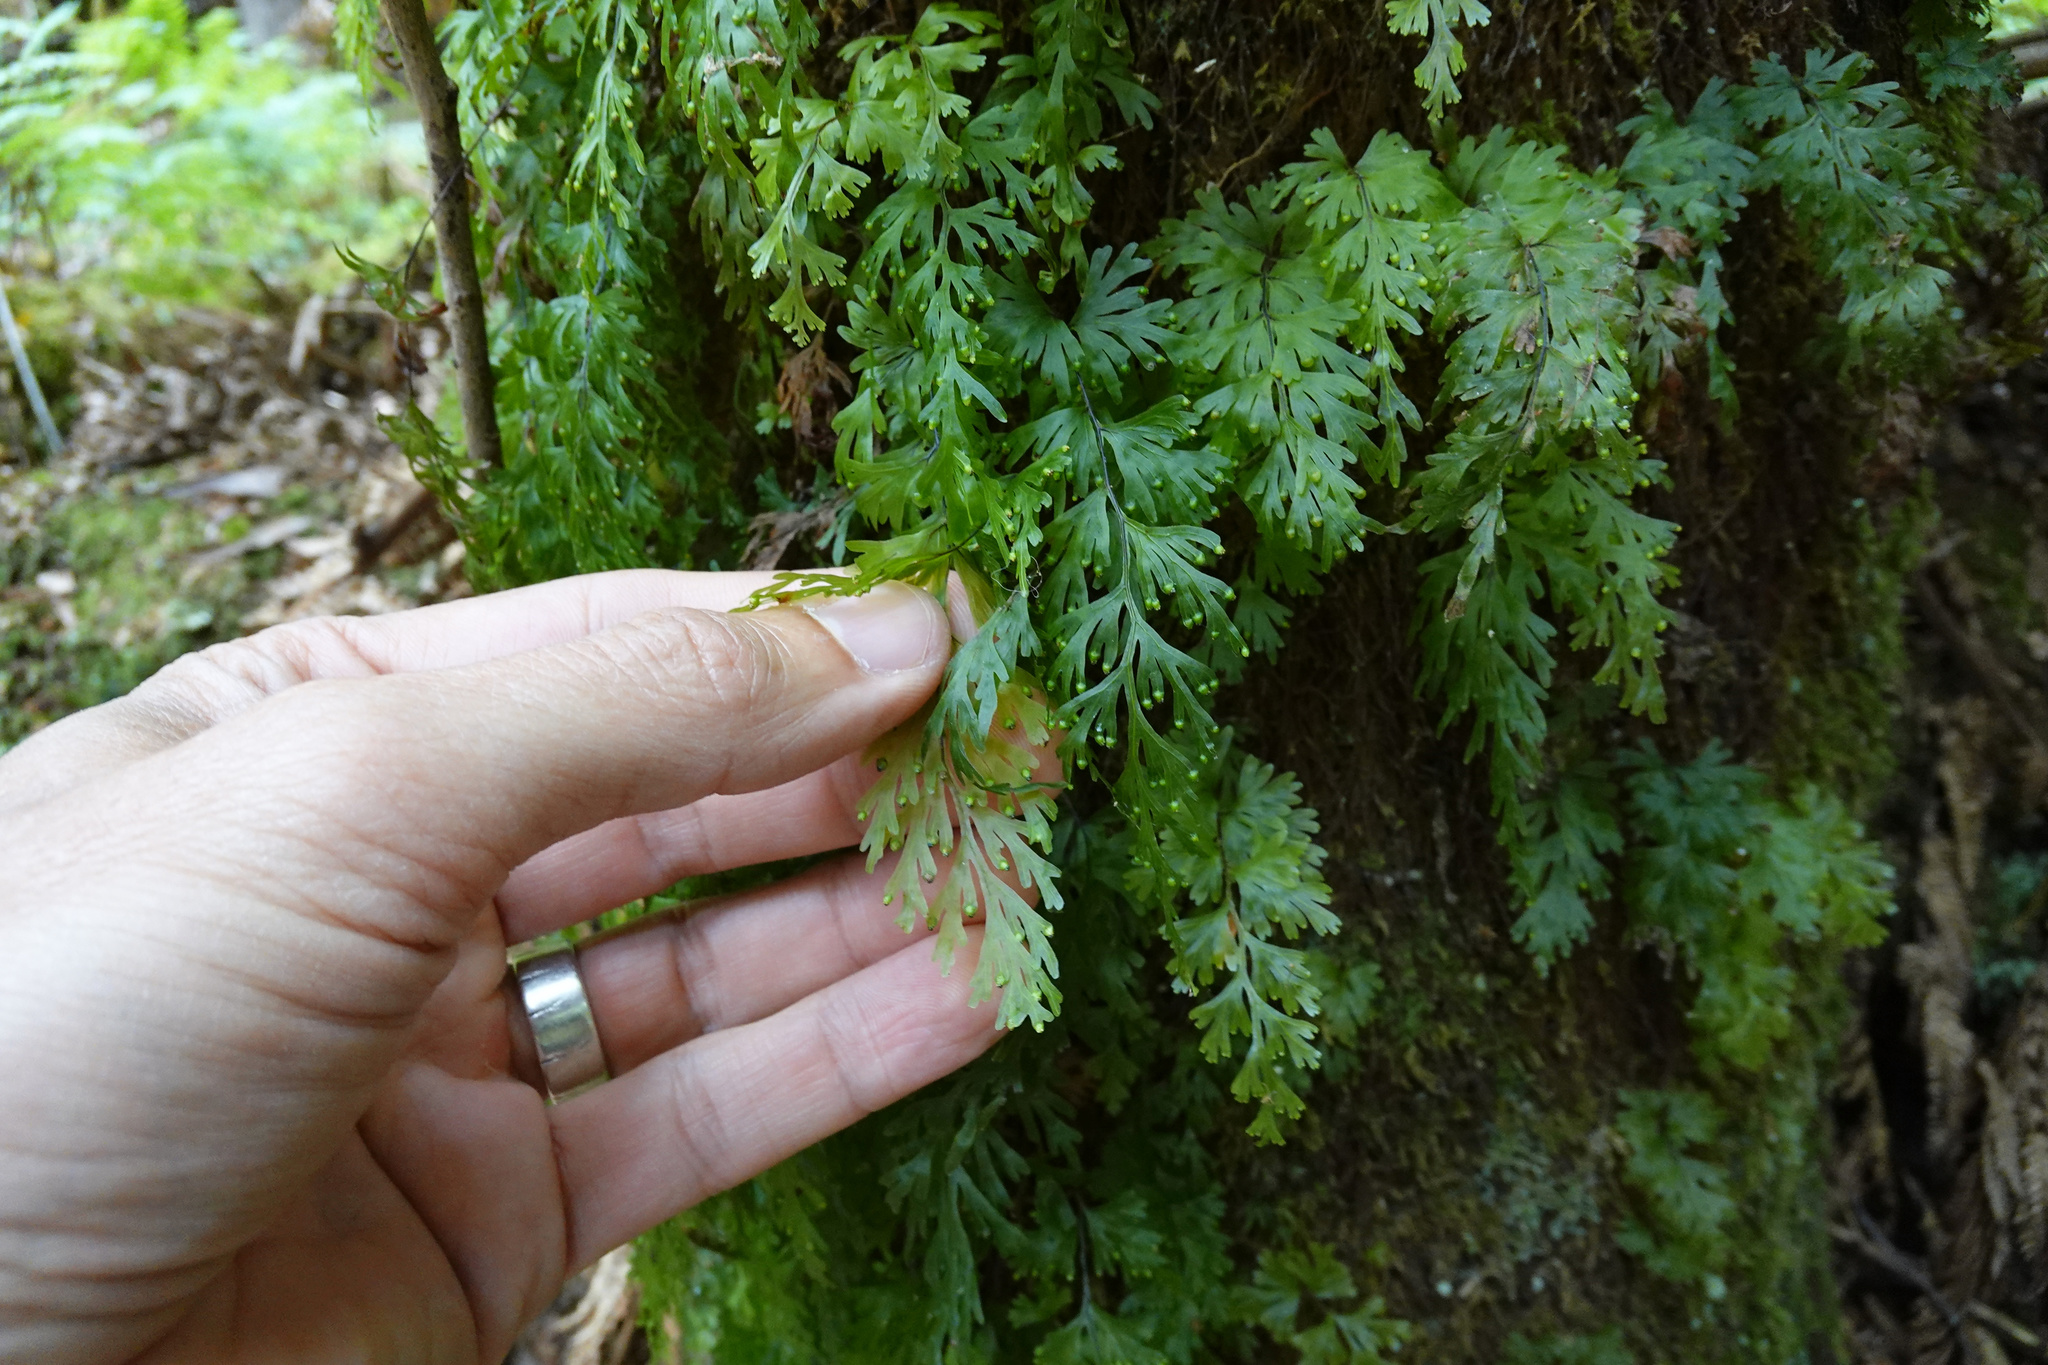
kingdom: Plantae
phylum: Tracheophyta
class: Polypodiopsida
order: Hymenophyllales
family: Hymenophyllaceae
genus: Hymenophyllum
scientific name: Hymenophyllum flabellatum
